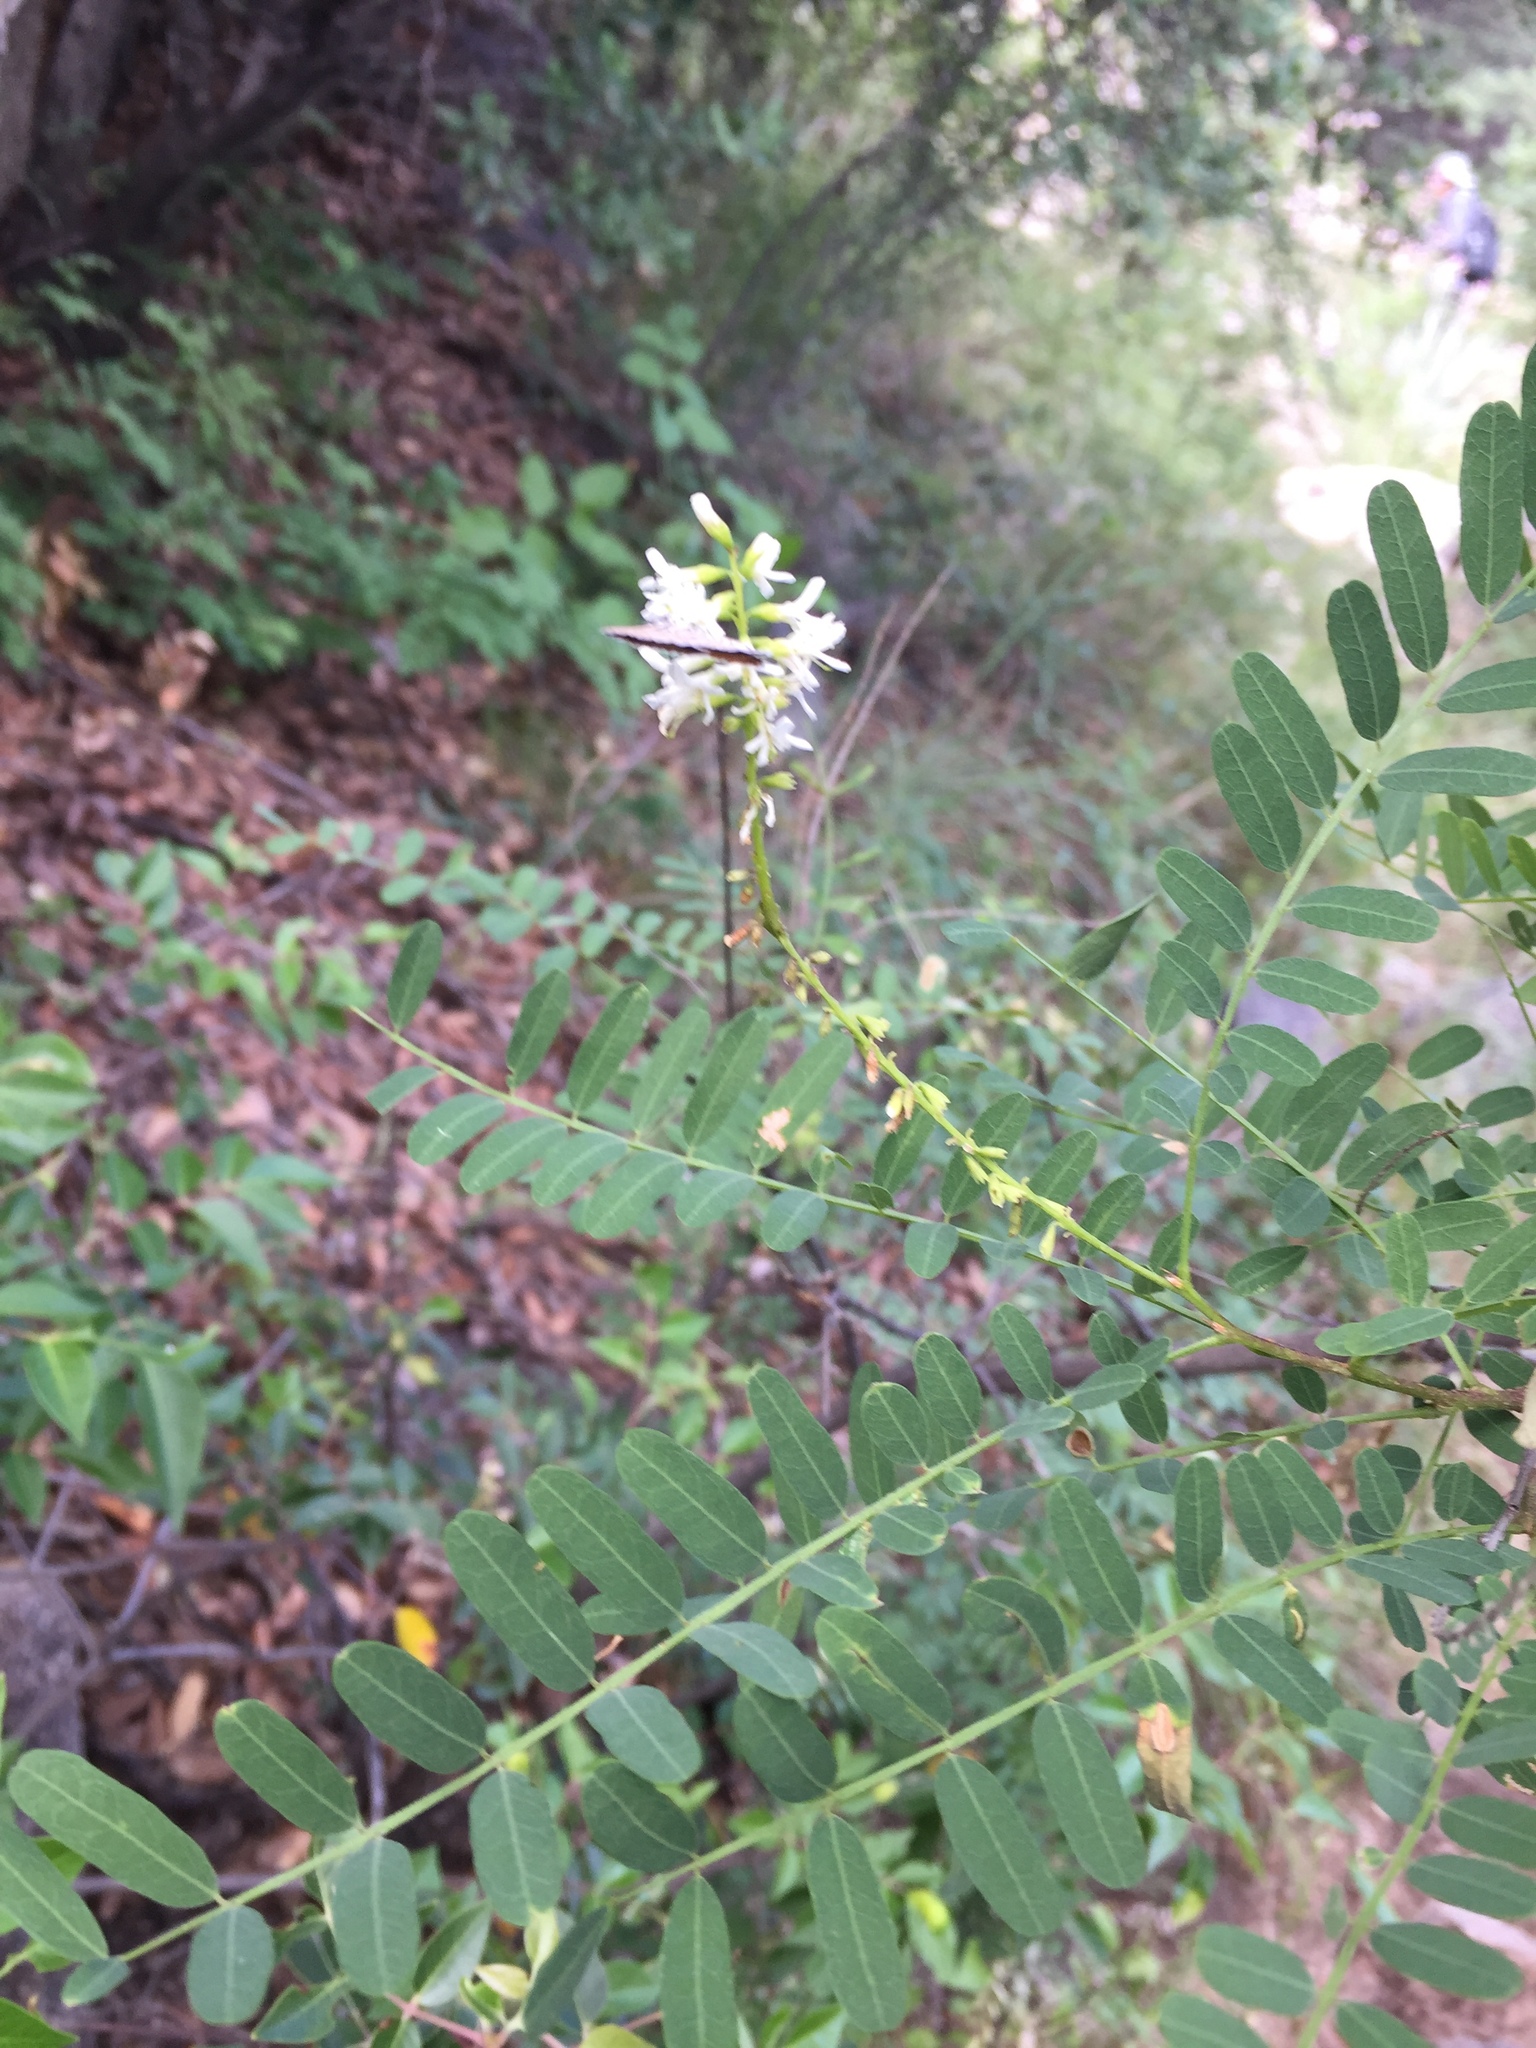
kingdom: Plantae
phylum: Tracheophyta
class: Magnoliopsida
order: Fabales
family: Fabaceae
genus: Eysenhardtia
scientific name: Eysenhardtia orthocarpa
